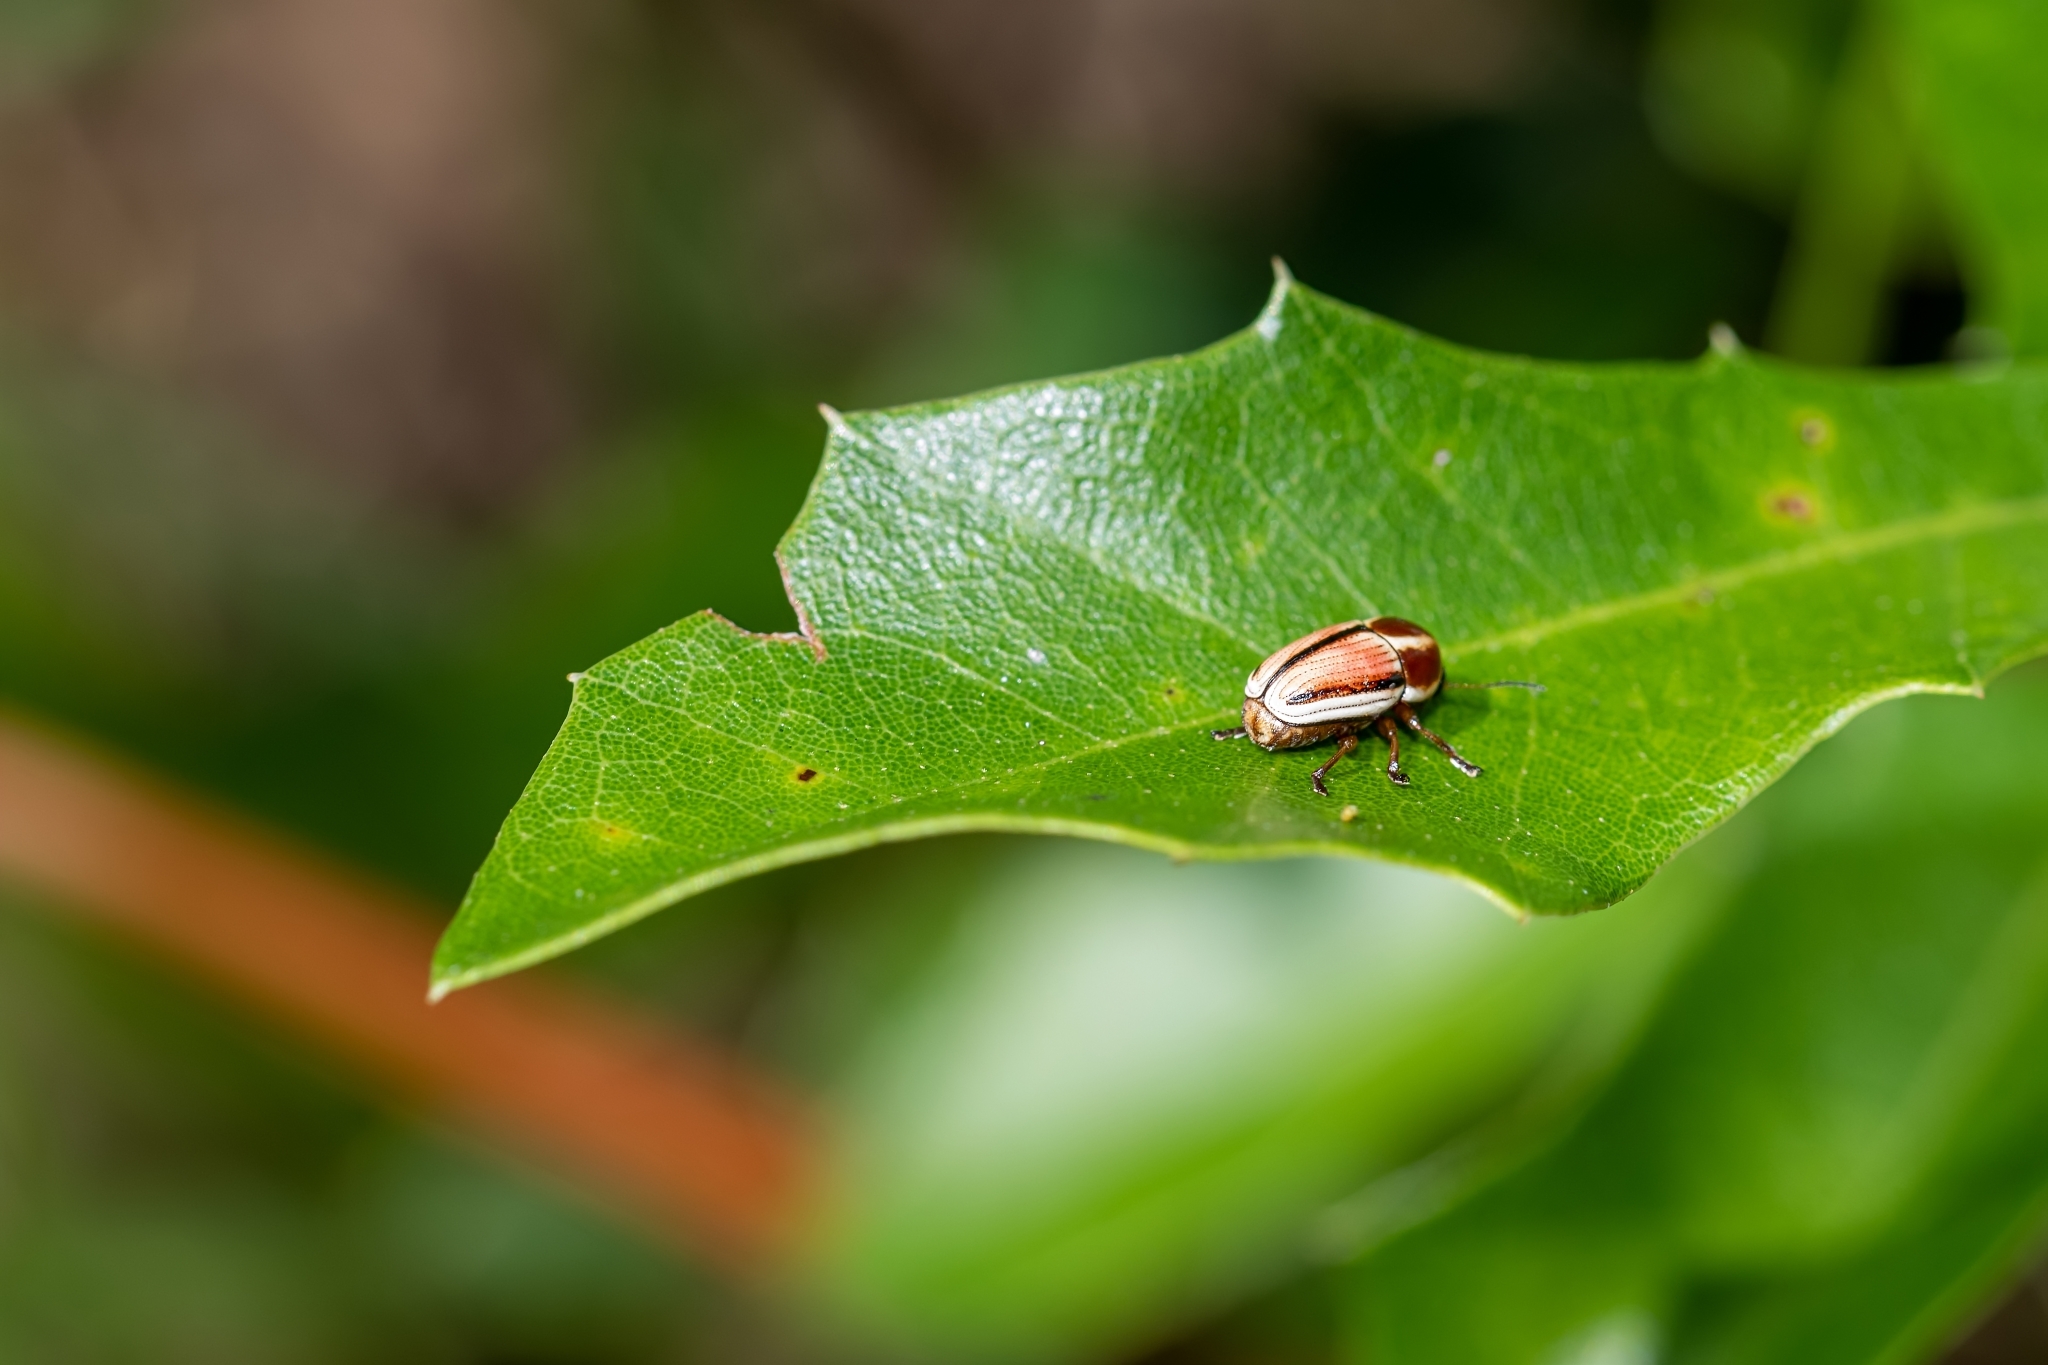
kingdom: Animalia
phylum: Arthropoda
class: Insecta
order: Coleoptera
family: Chrysomelidae
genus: Cryptocephalus
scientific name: Cryptocephalus cuneatus
